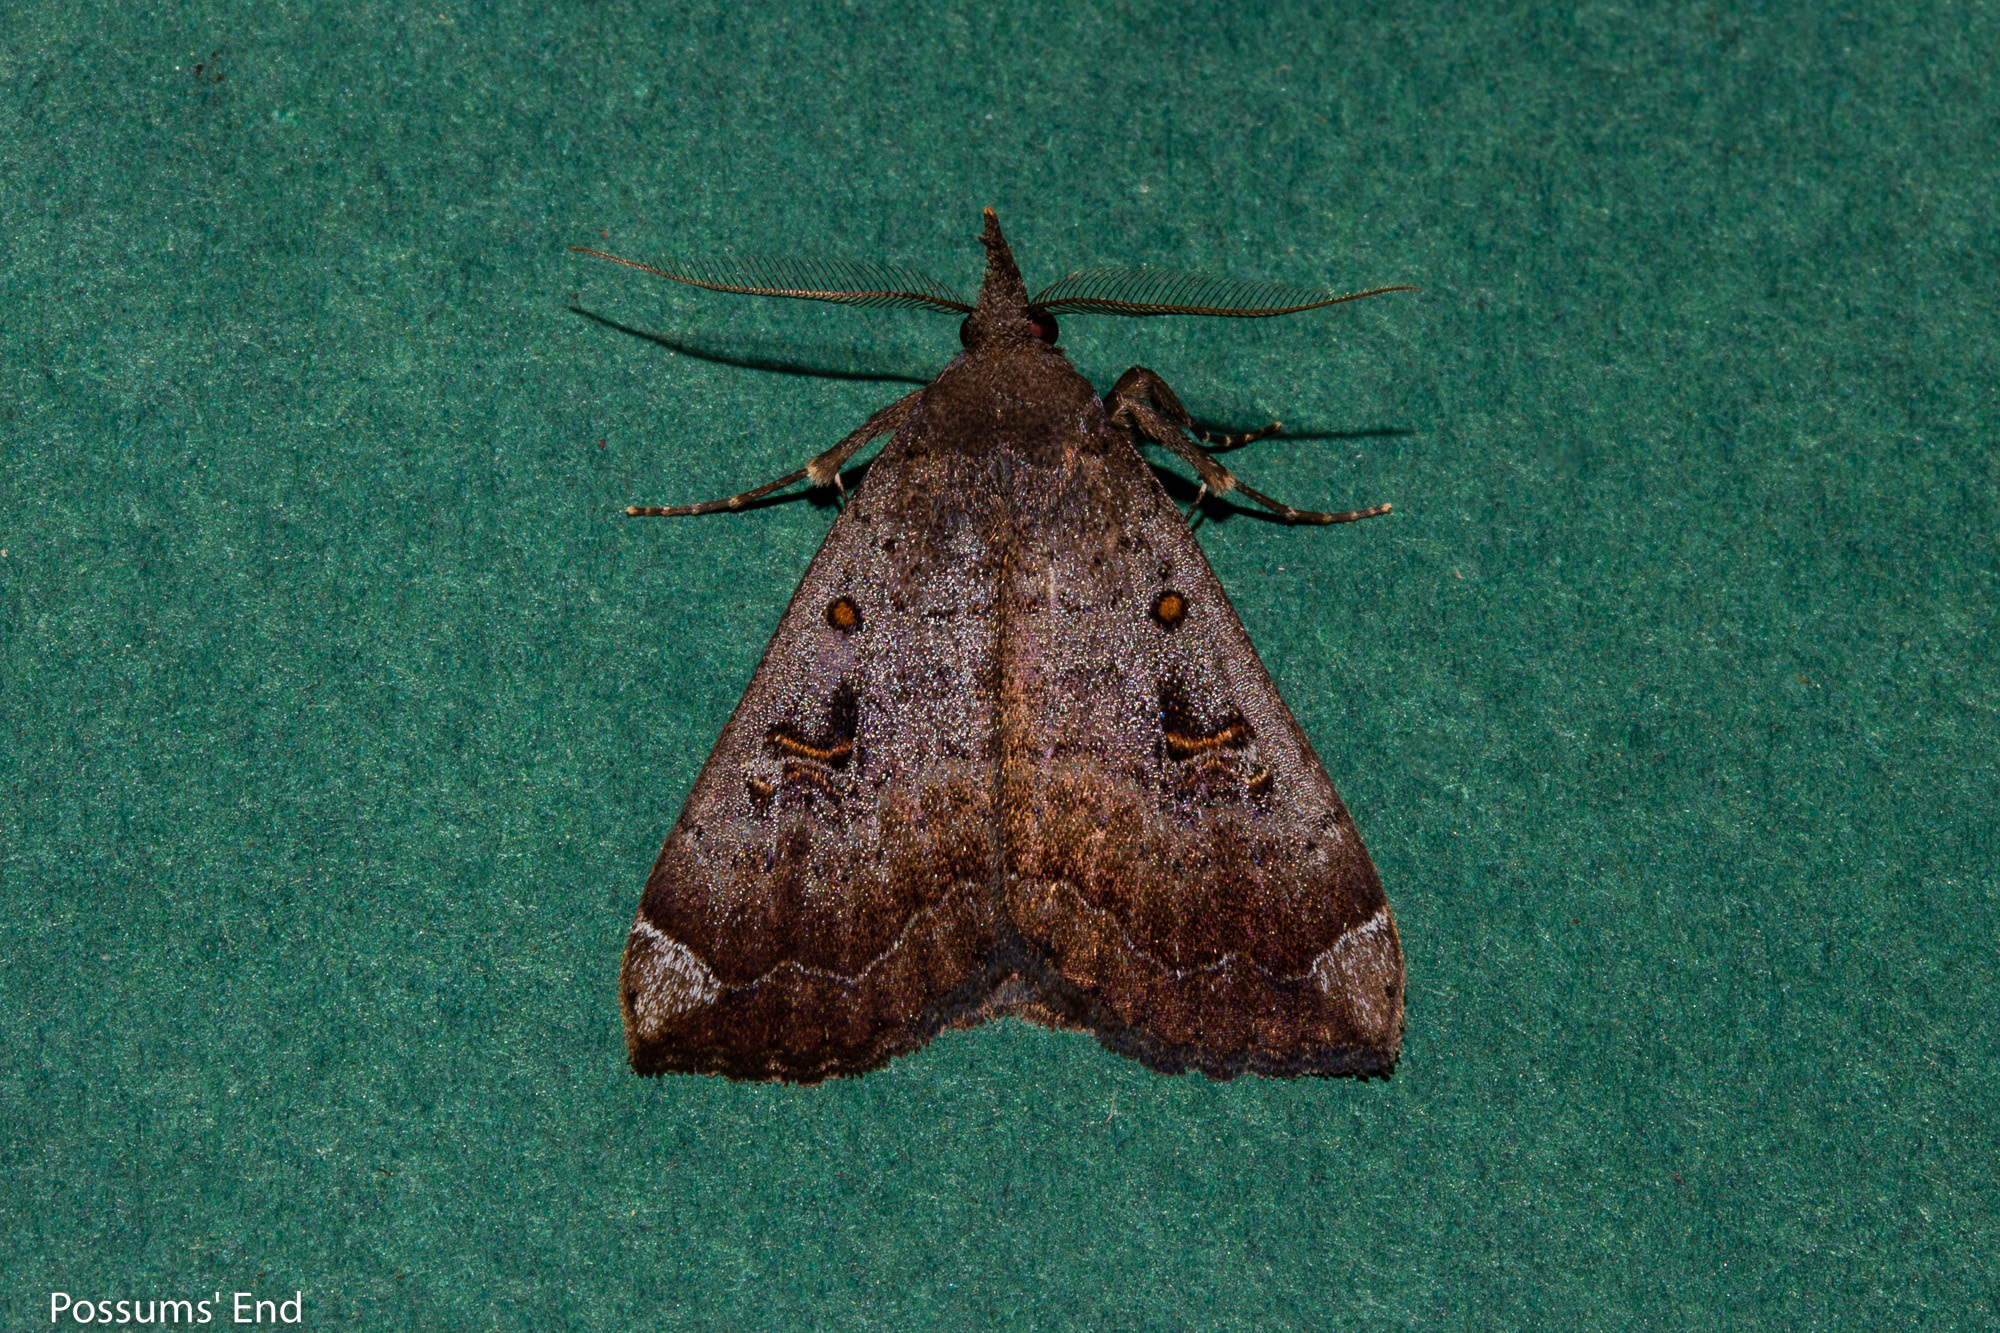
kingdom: Animalia
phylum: Arthropoda
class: Insecta
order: Lepidoptera
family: Erebidae
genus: Rhapsa
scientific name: Rhapsa scotosialis
